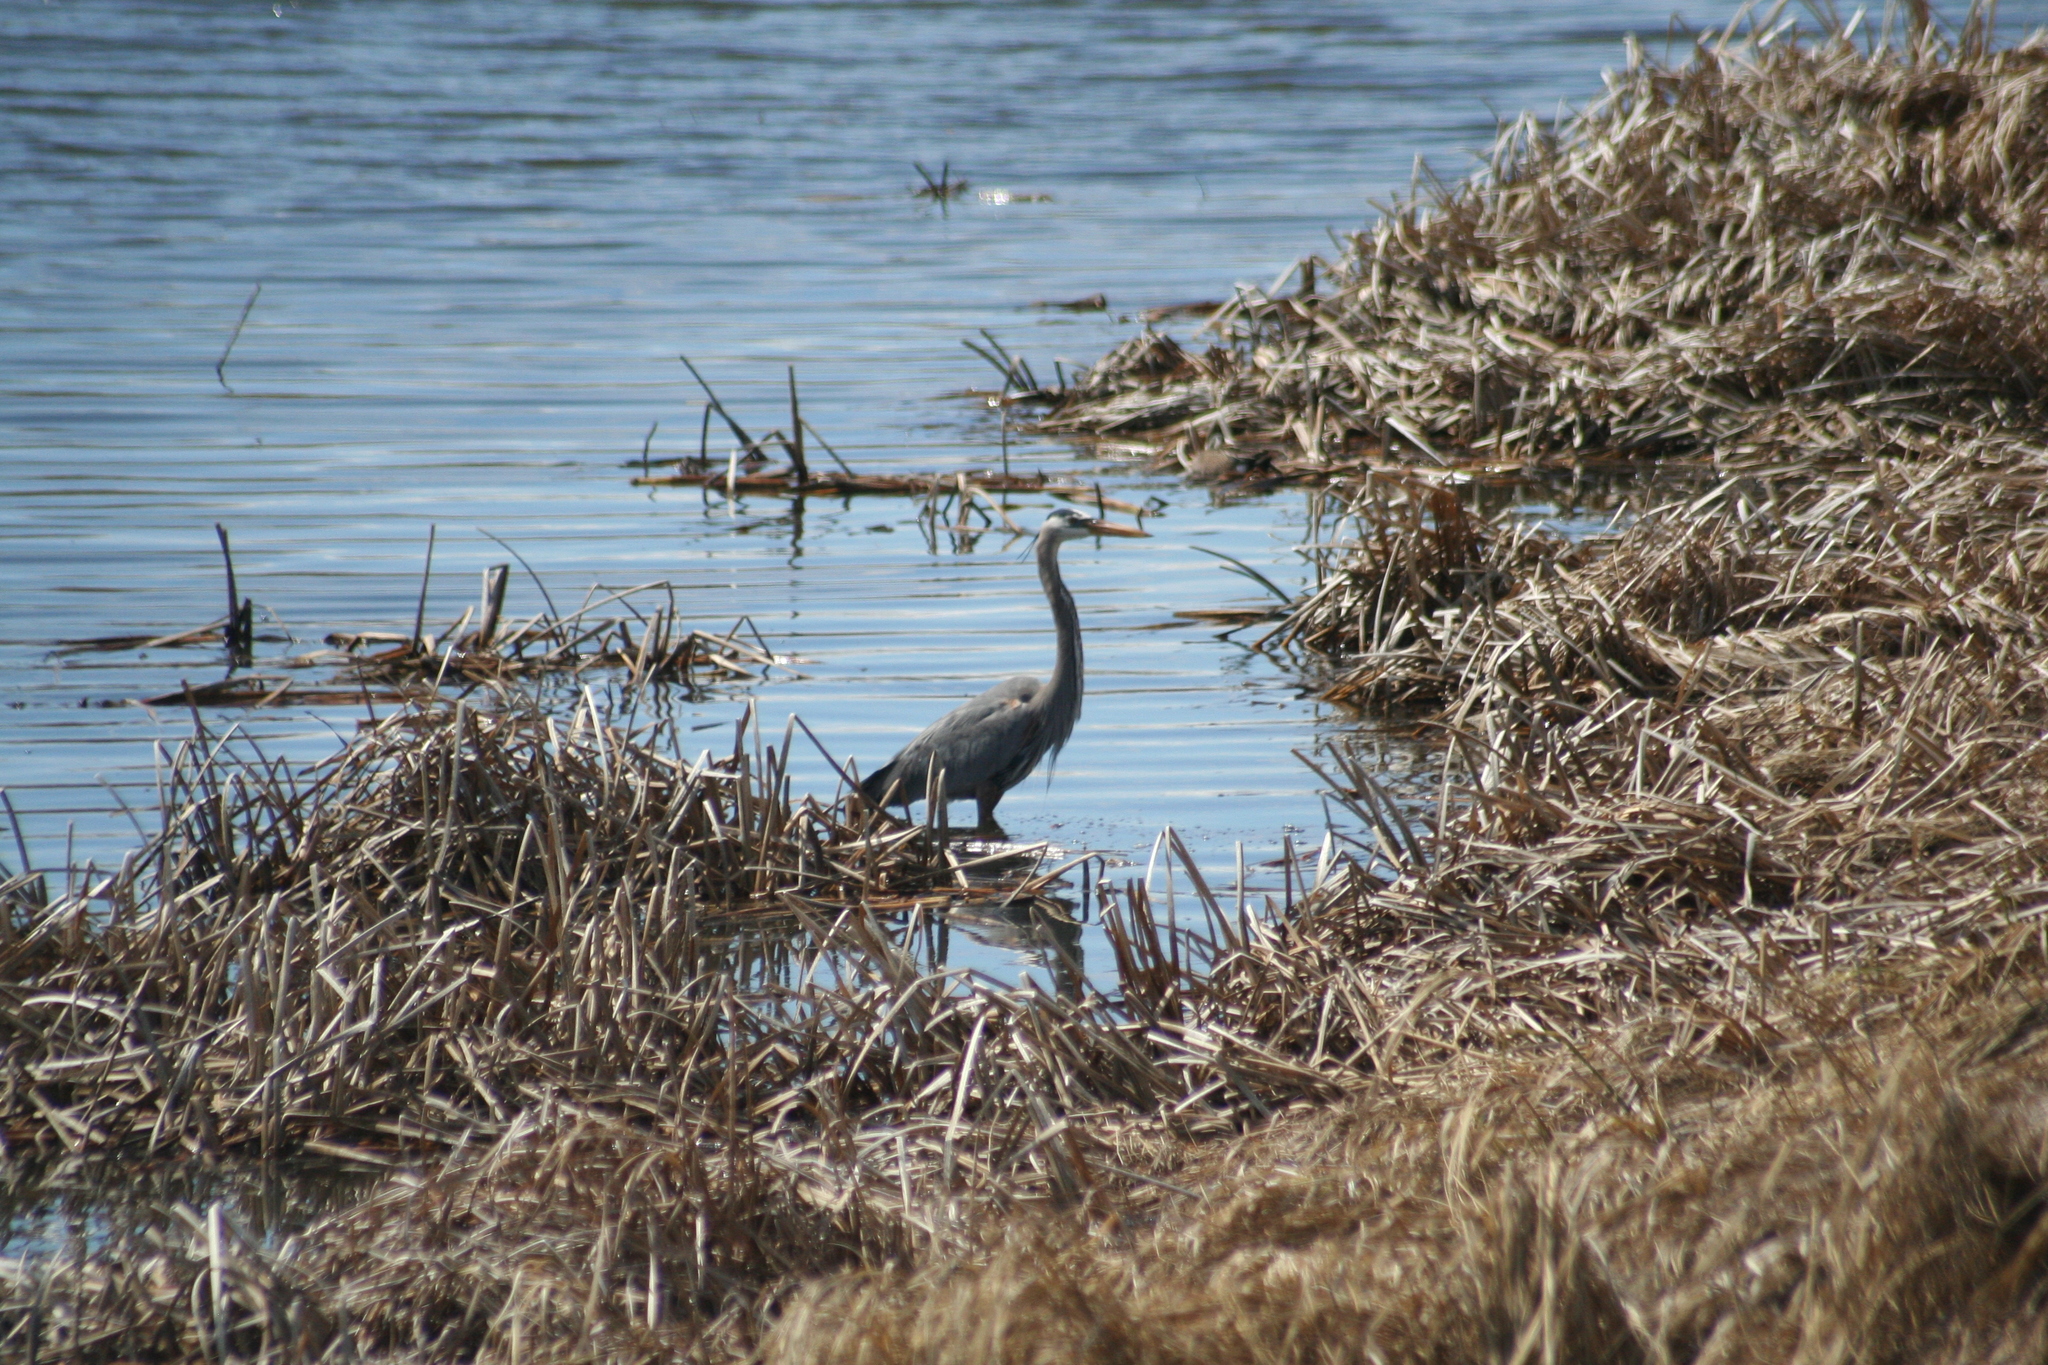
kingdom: Animalia
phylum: Chordata
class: Aves
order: Pelecaniformes
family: Ardeidae
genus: Ardea
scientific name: Ardea herodias
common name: Great blue heron
